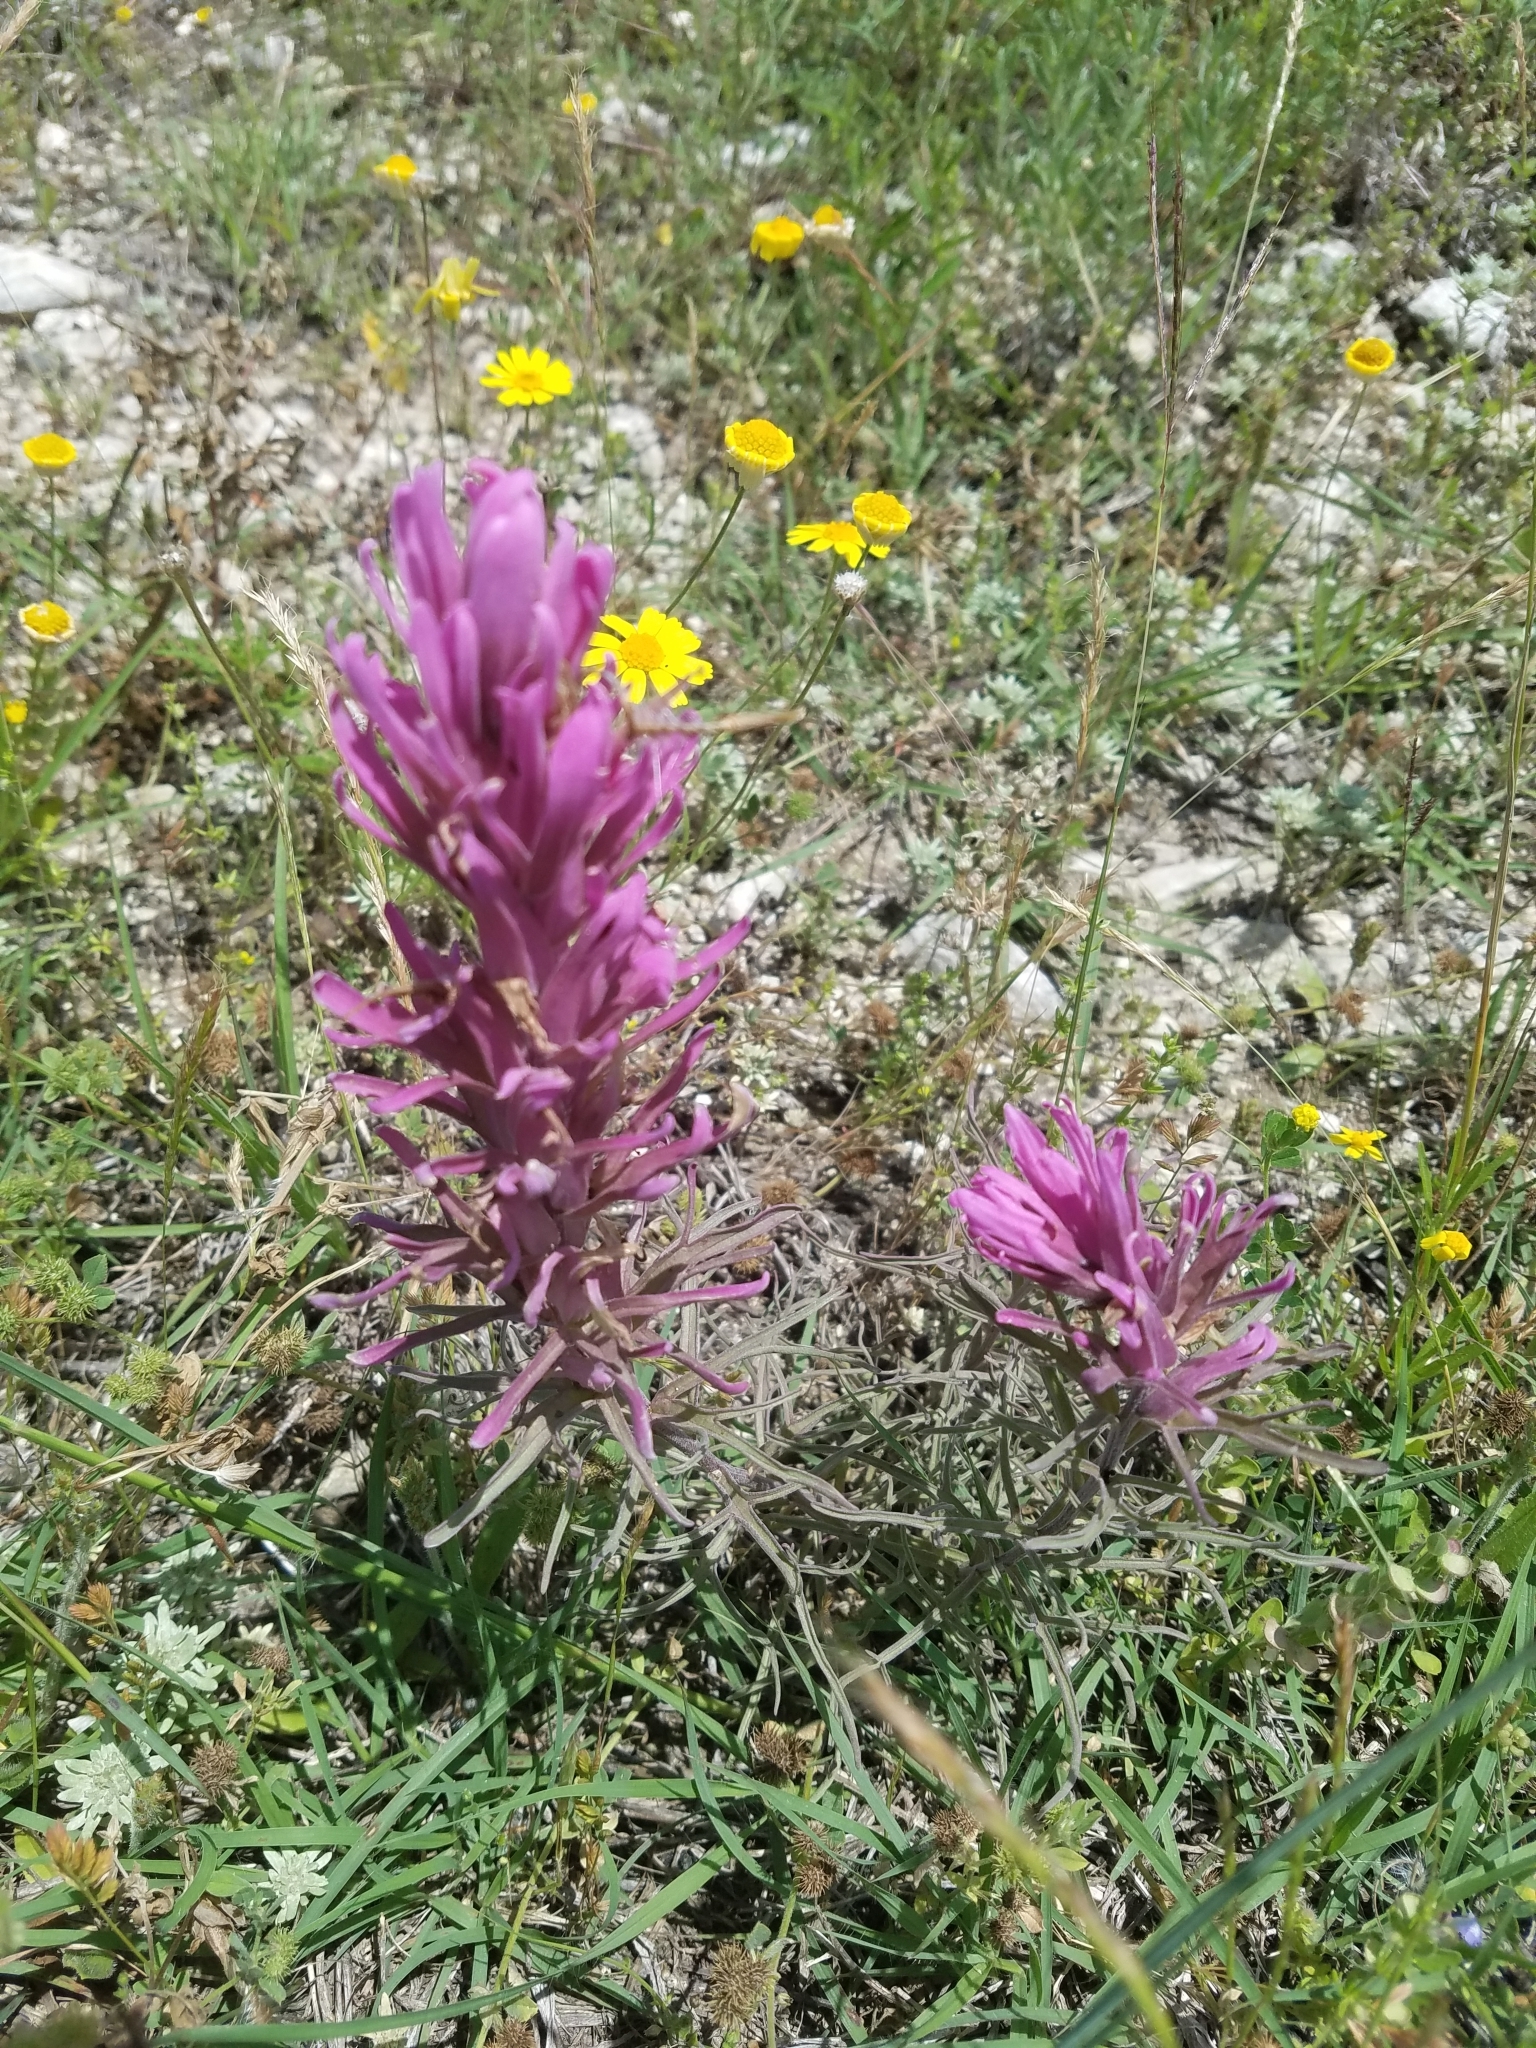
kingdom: Plantae
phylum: Tracheophyta
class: Magnoliopsida
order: Lamiales
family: Orobanchaceae
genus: Castilleja
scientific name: Castilleja purpurea
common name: Plains paintbrush
